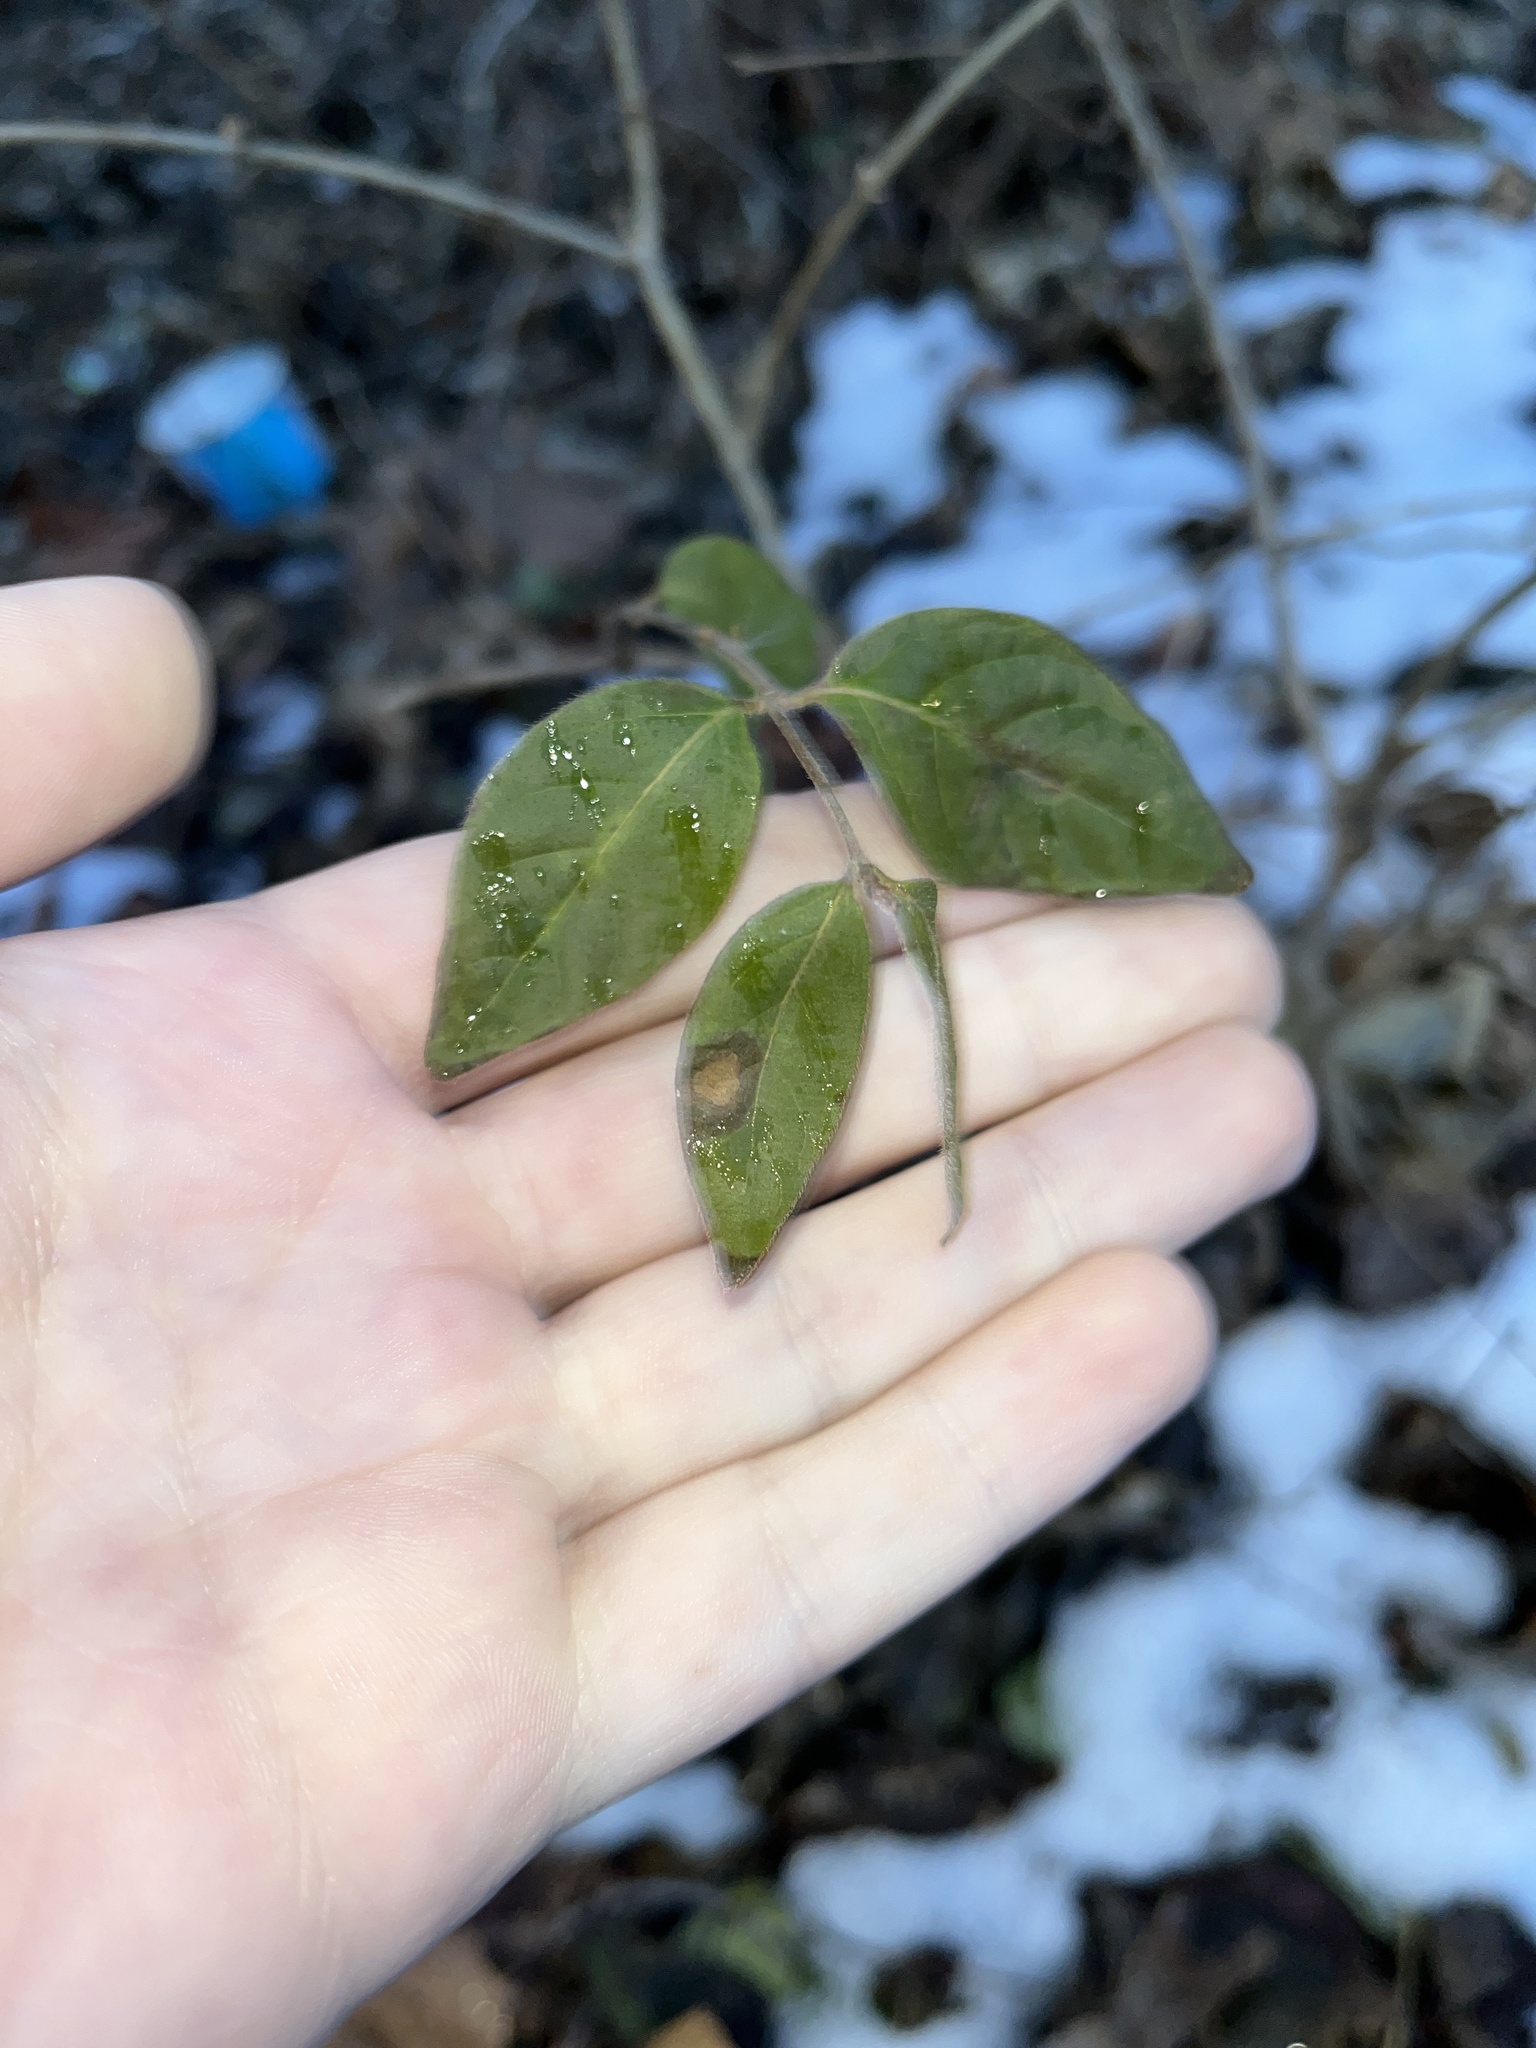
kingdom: Plantae
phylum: Tracheophyta
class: Magnoliopsida
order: Dipsacales
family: Caprifoliaceae
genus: Lonicera
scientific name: Lonicera maackii
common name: Amur honeysuckle
